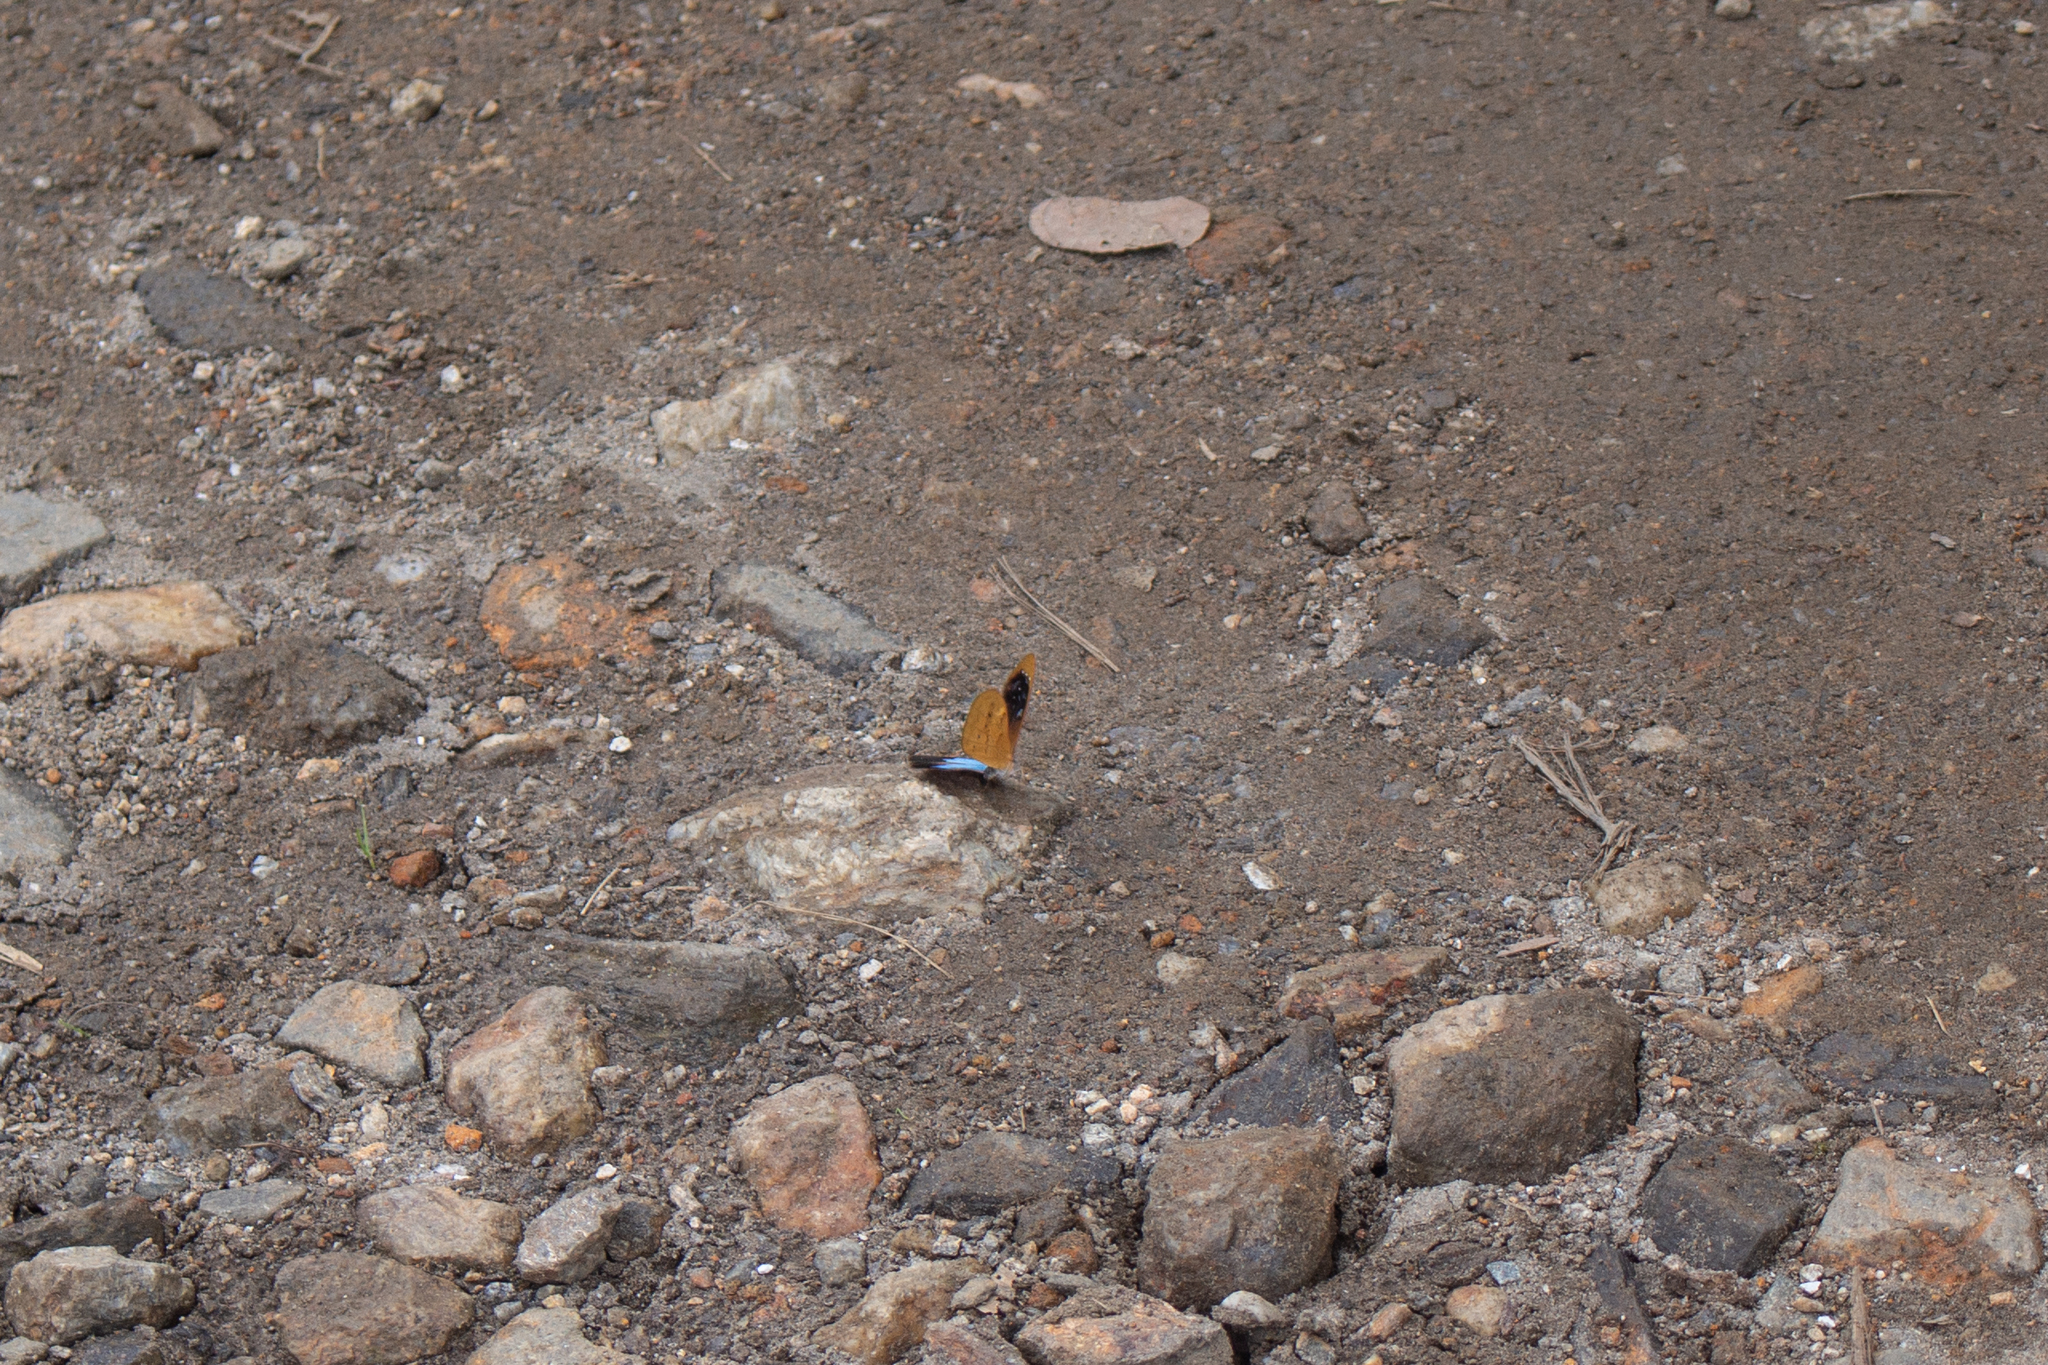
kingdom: Animalia
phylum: Arthropoda
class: Insecta
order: Lepidoptera
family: Nymphalidae
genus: Lymanopoda
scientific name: Lymanopoda caeruleata
